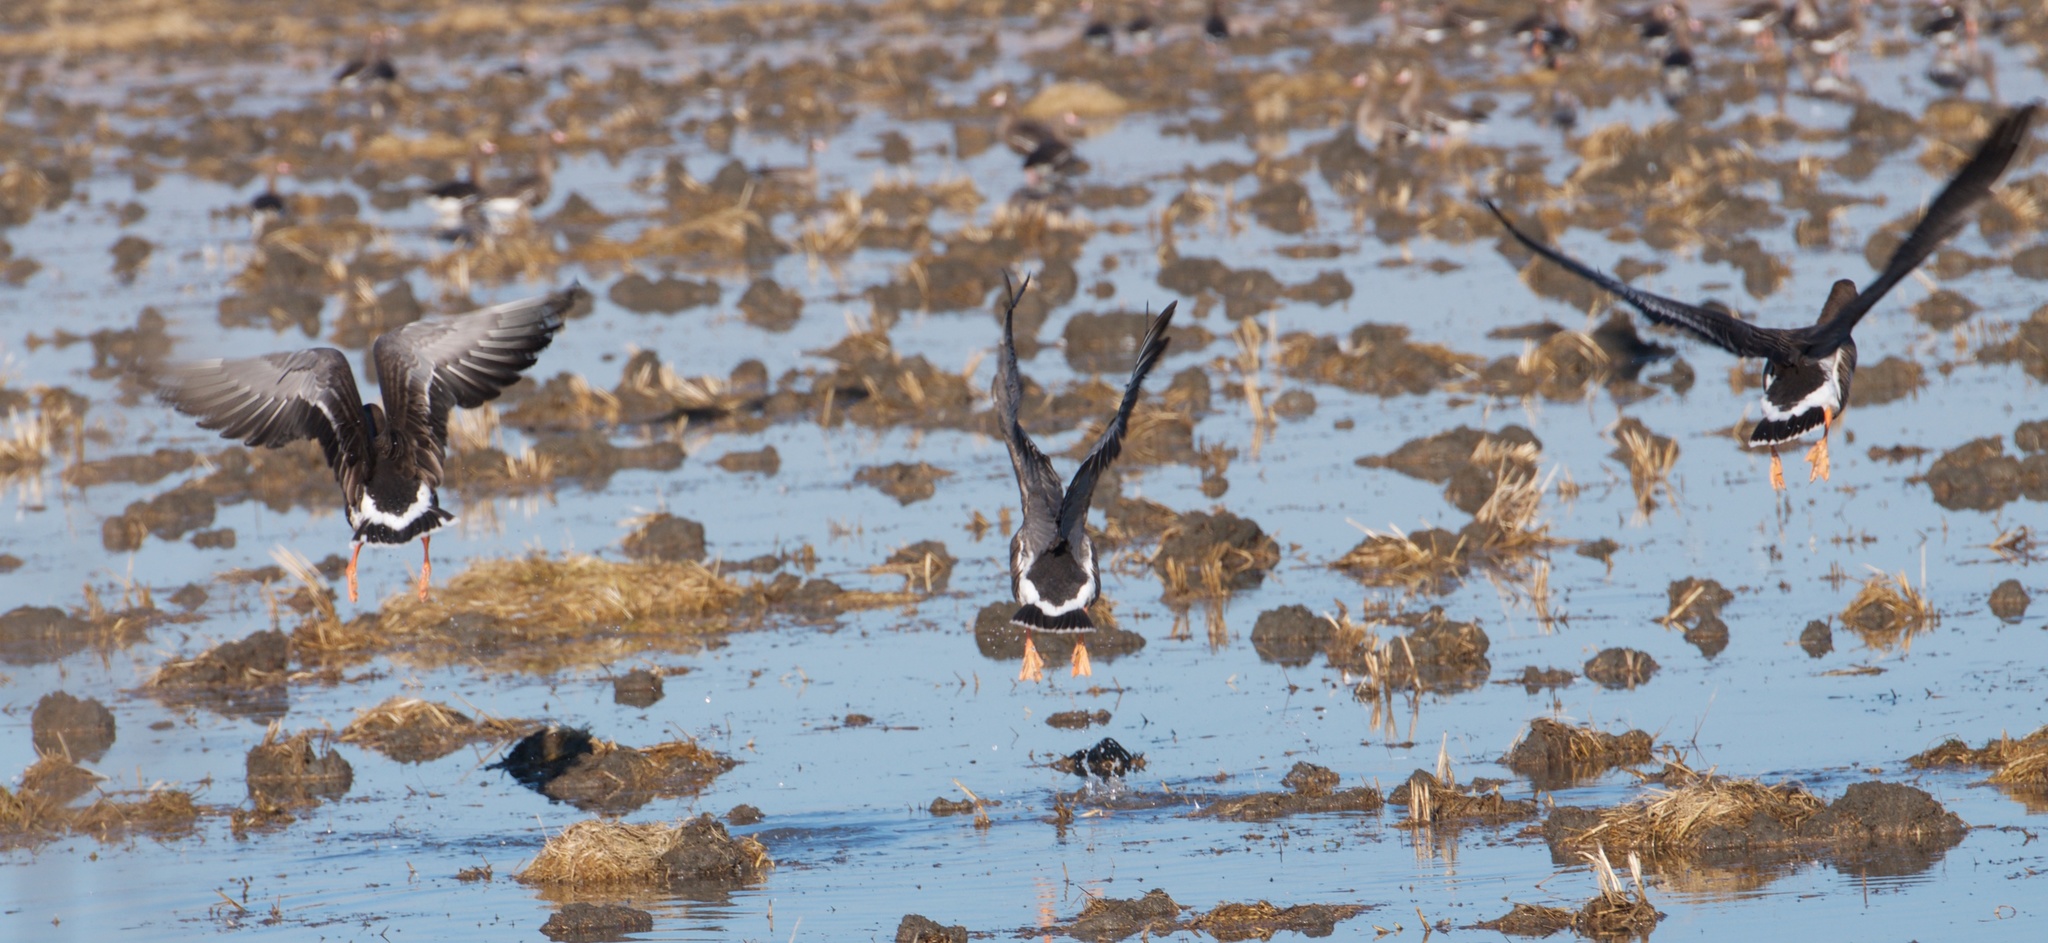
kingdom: Animalia
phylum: Chordata
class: Aves
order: Anseriformes
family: Anatidae
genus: Anser
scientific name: Anser albifrons
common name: Greater white-fronted goose
